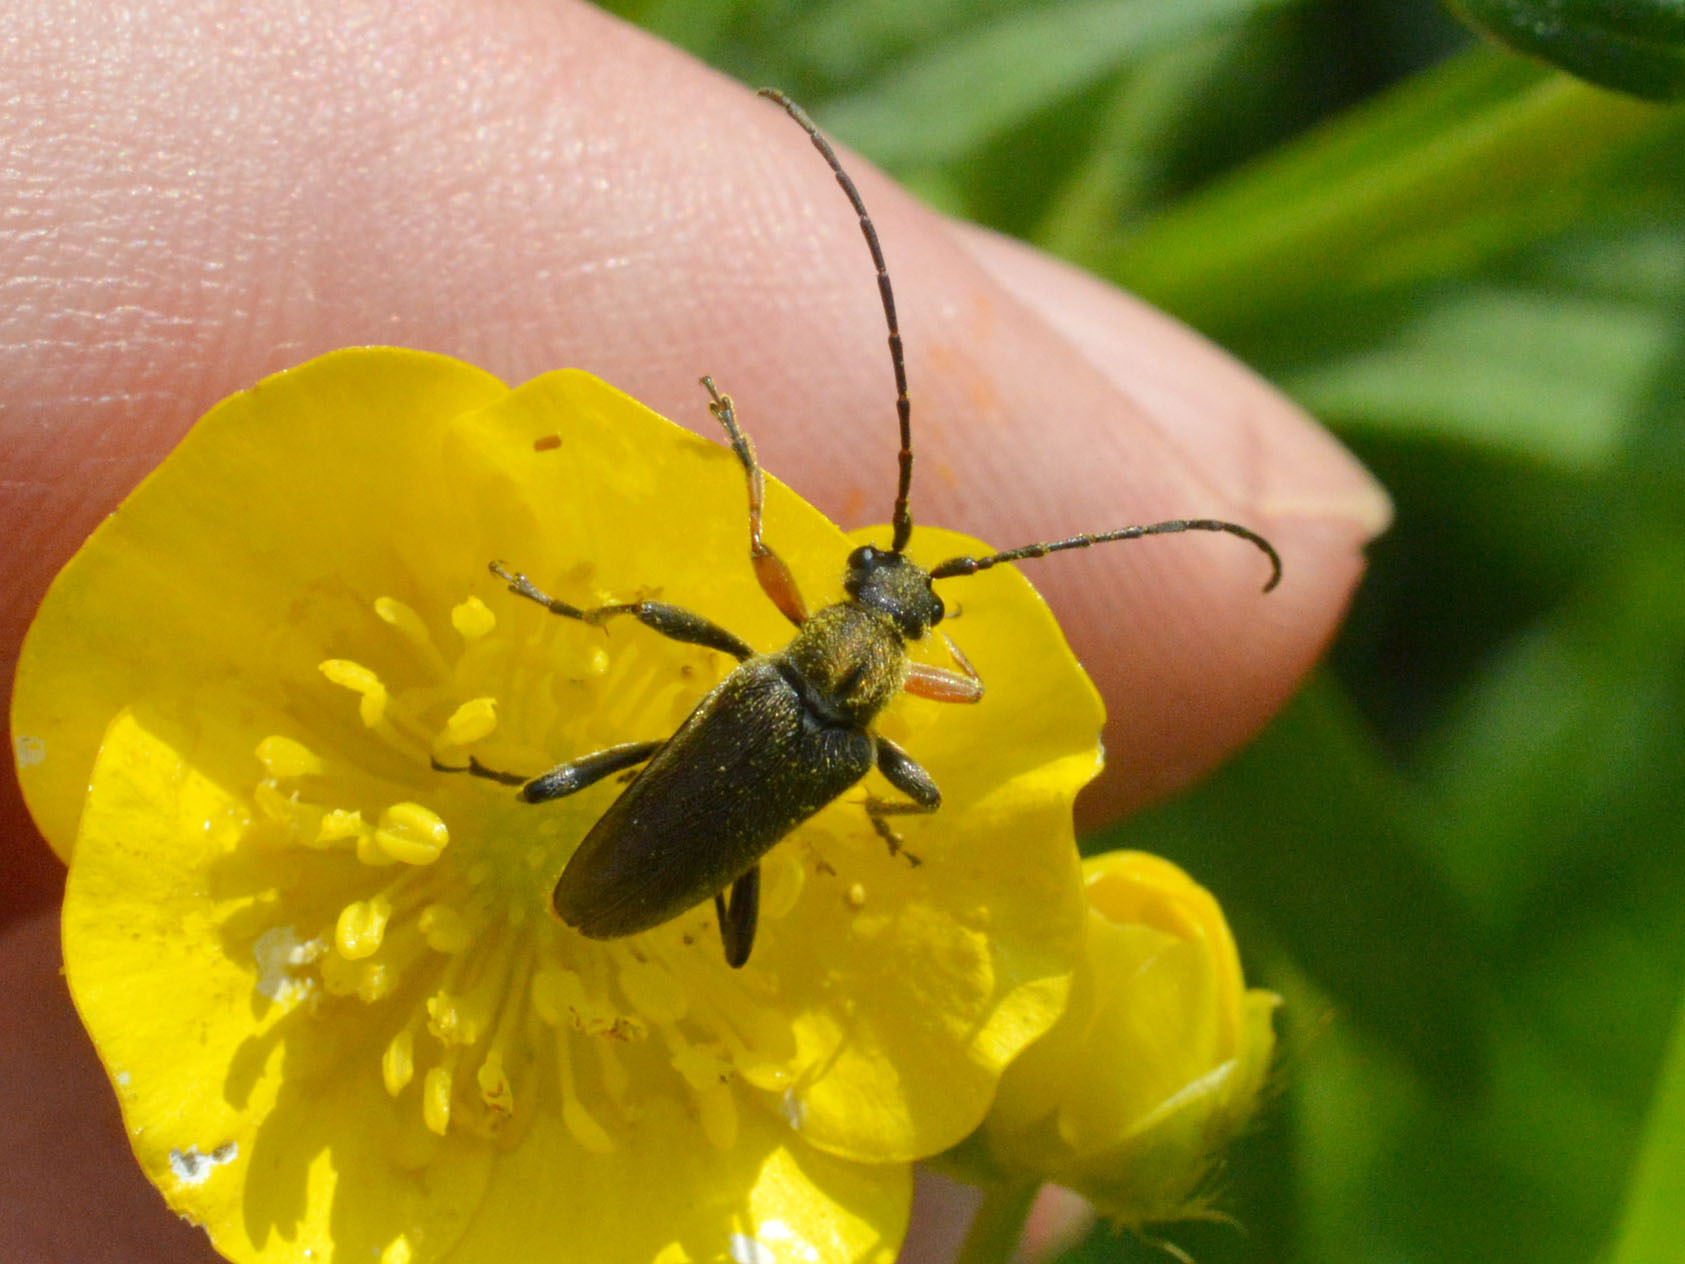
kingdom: Animalia
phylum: Arthropoda
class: Insecta
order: Coleoptera
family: Cerambycidae
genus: Cortodera
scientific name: Cortodera flavimana
